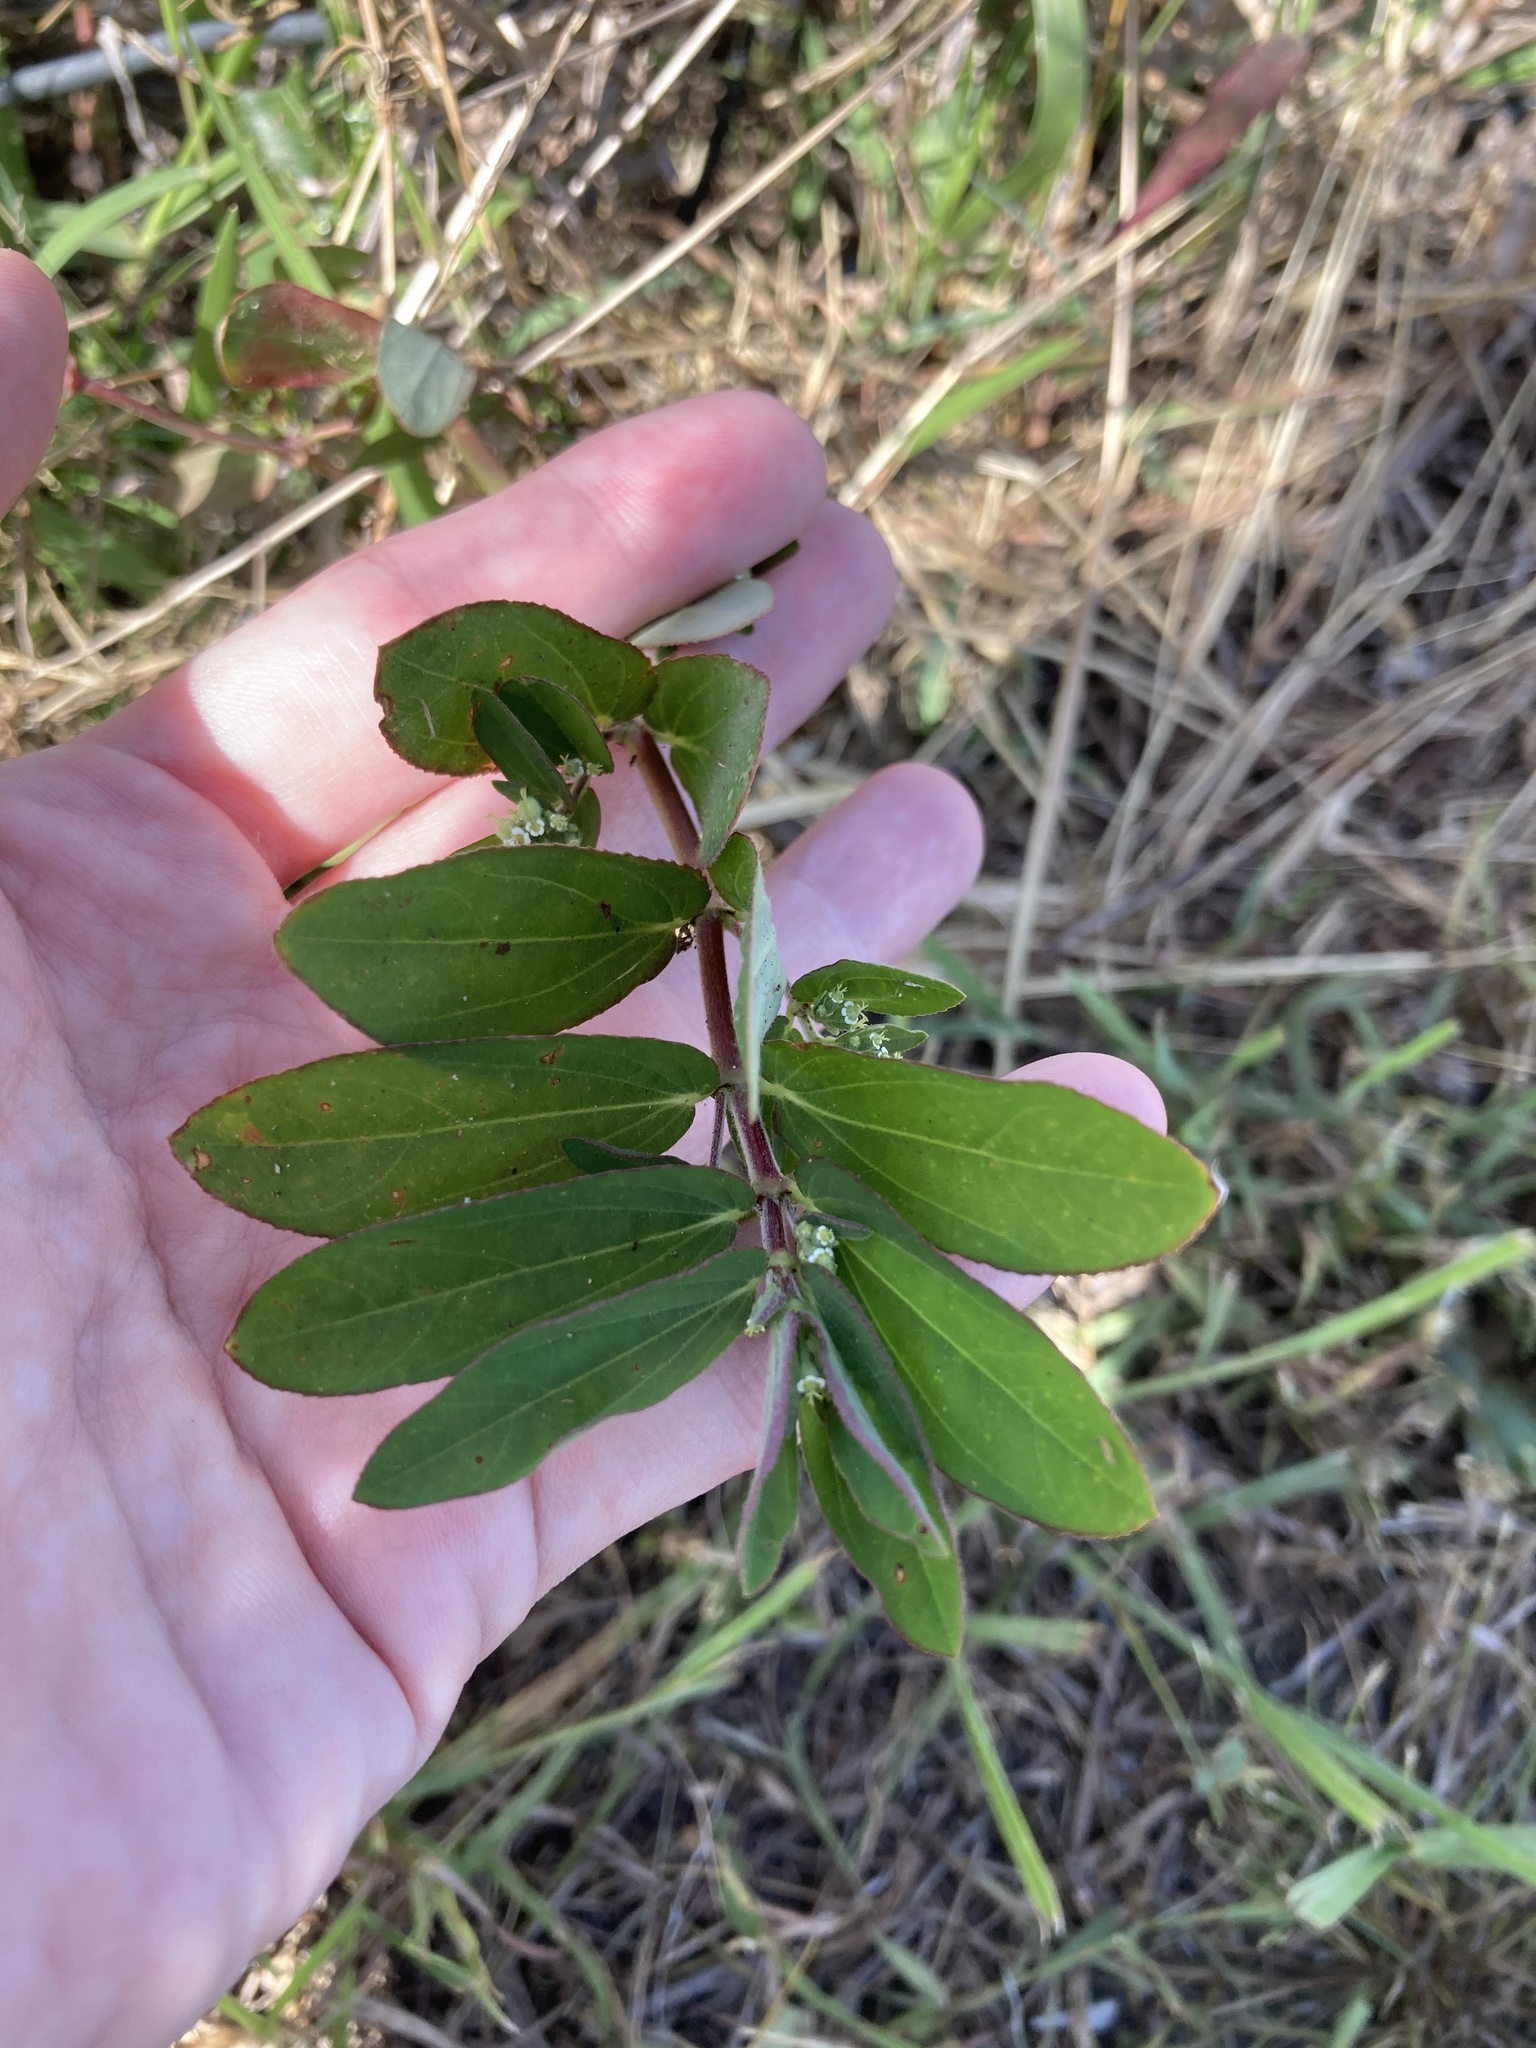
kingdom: Plantae
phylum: Tracheophyta
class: Magnoliopsida
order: Malpighiales
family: Euphorbiaceae
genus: Euphorbia
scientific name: Euphorbia lasiocarpa
